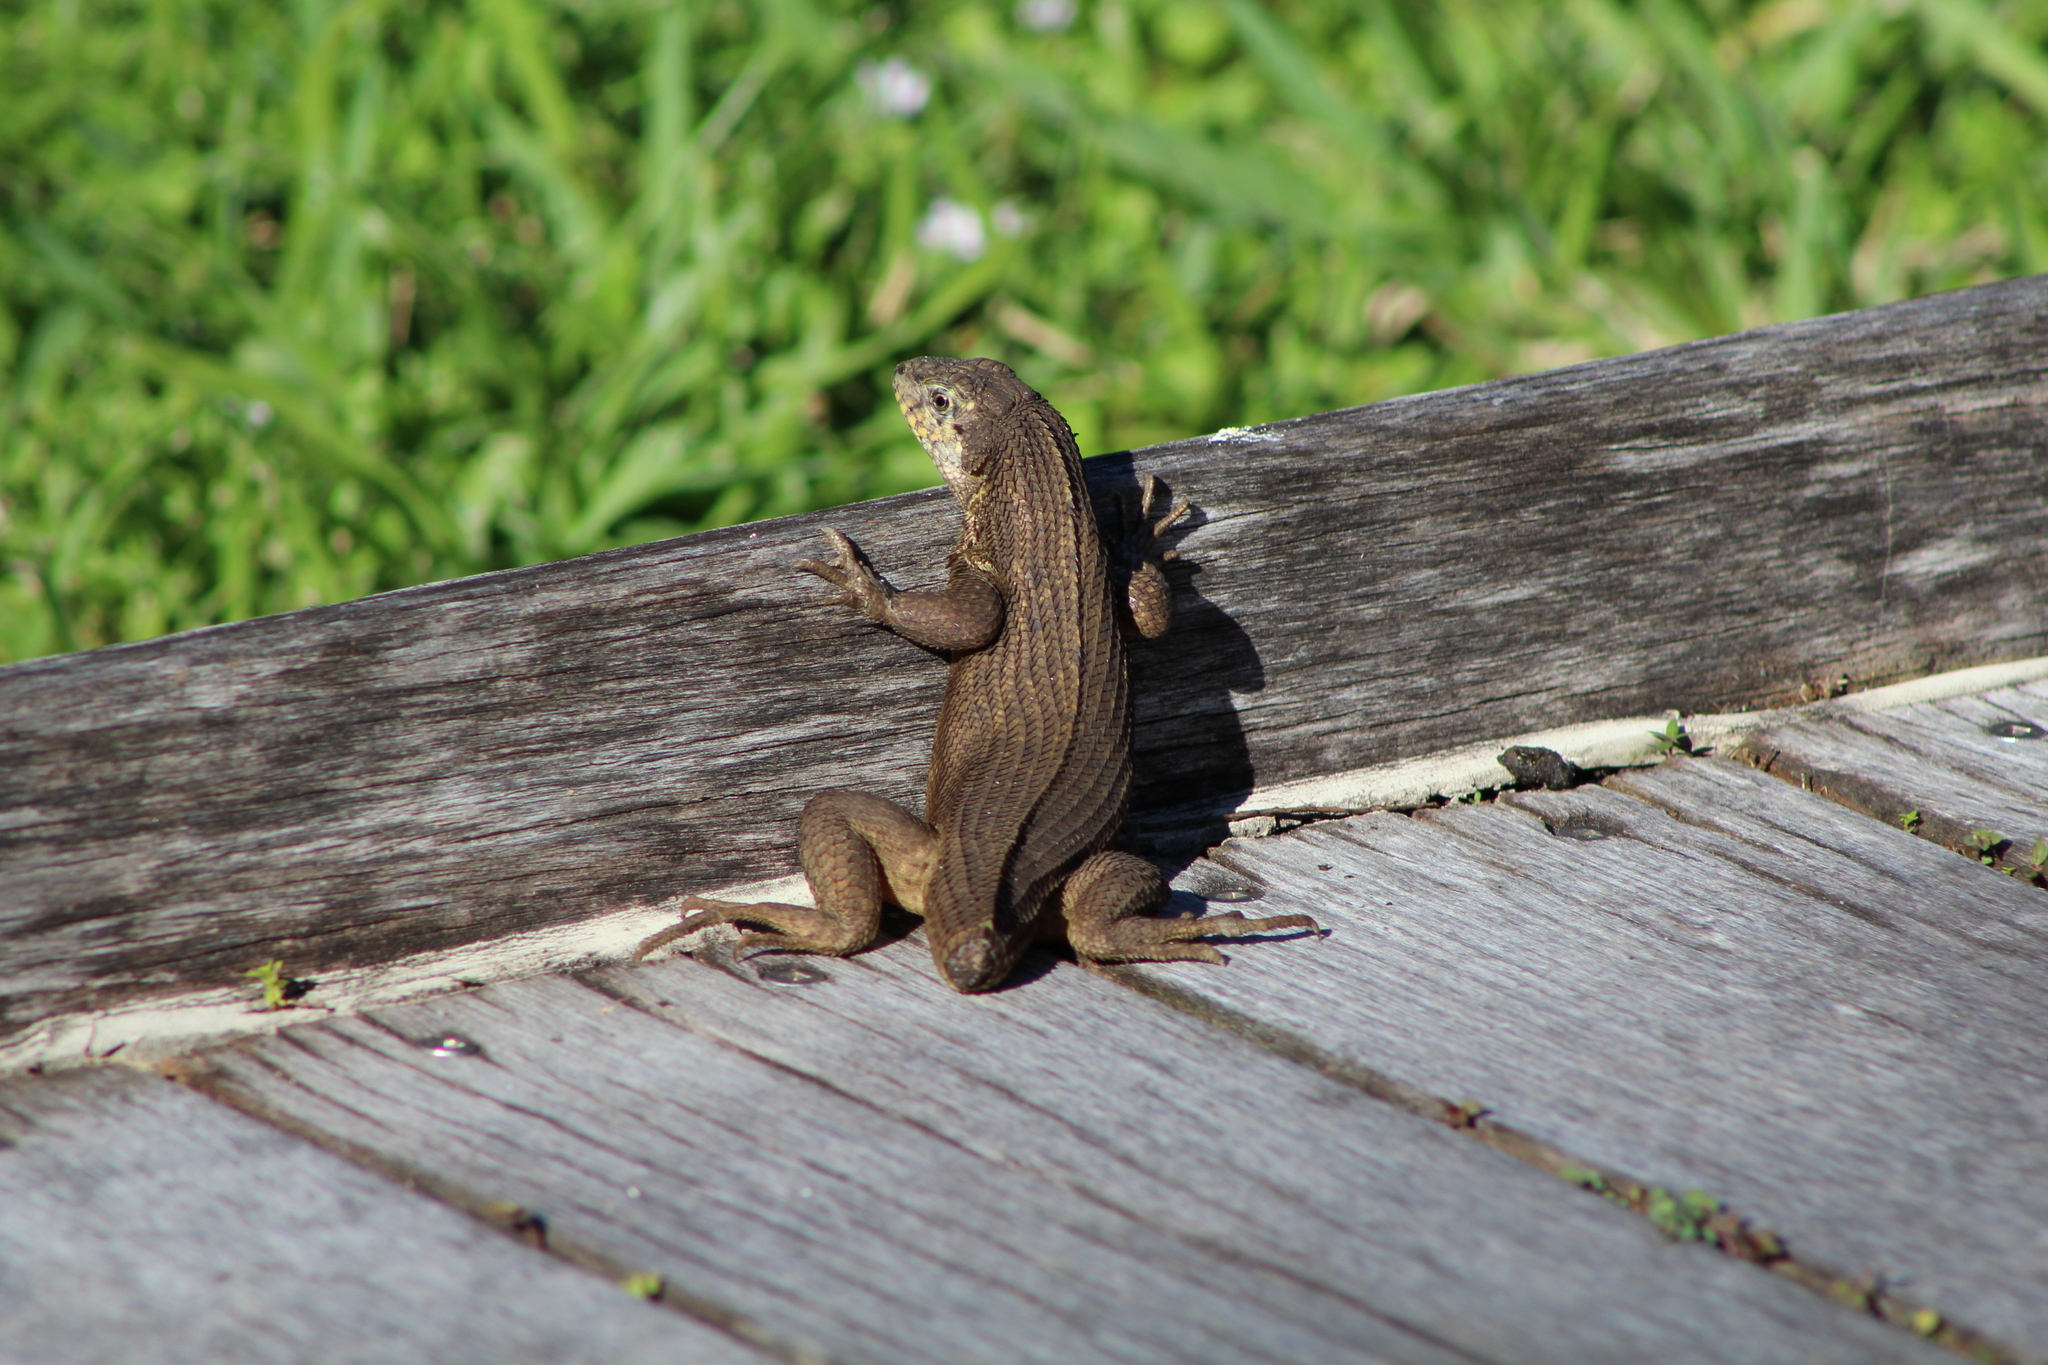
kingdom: Animalia
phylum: Chordata
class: Squamata
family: Leiocephalidae
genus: Leiocephalus
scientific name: Leiocephalus carinatus
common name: Northern curly-tailed lizard
